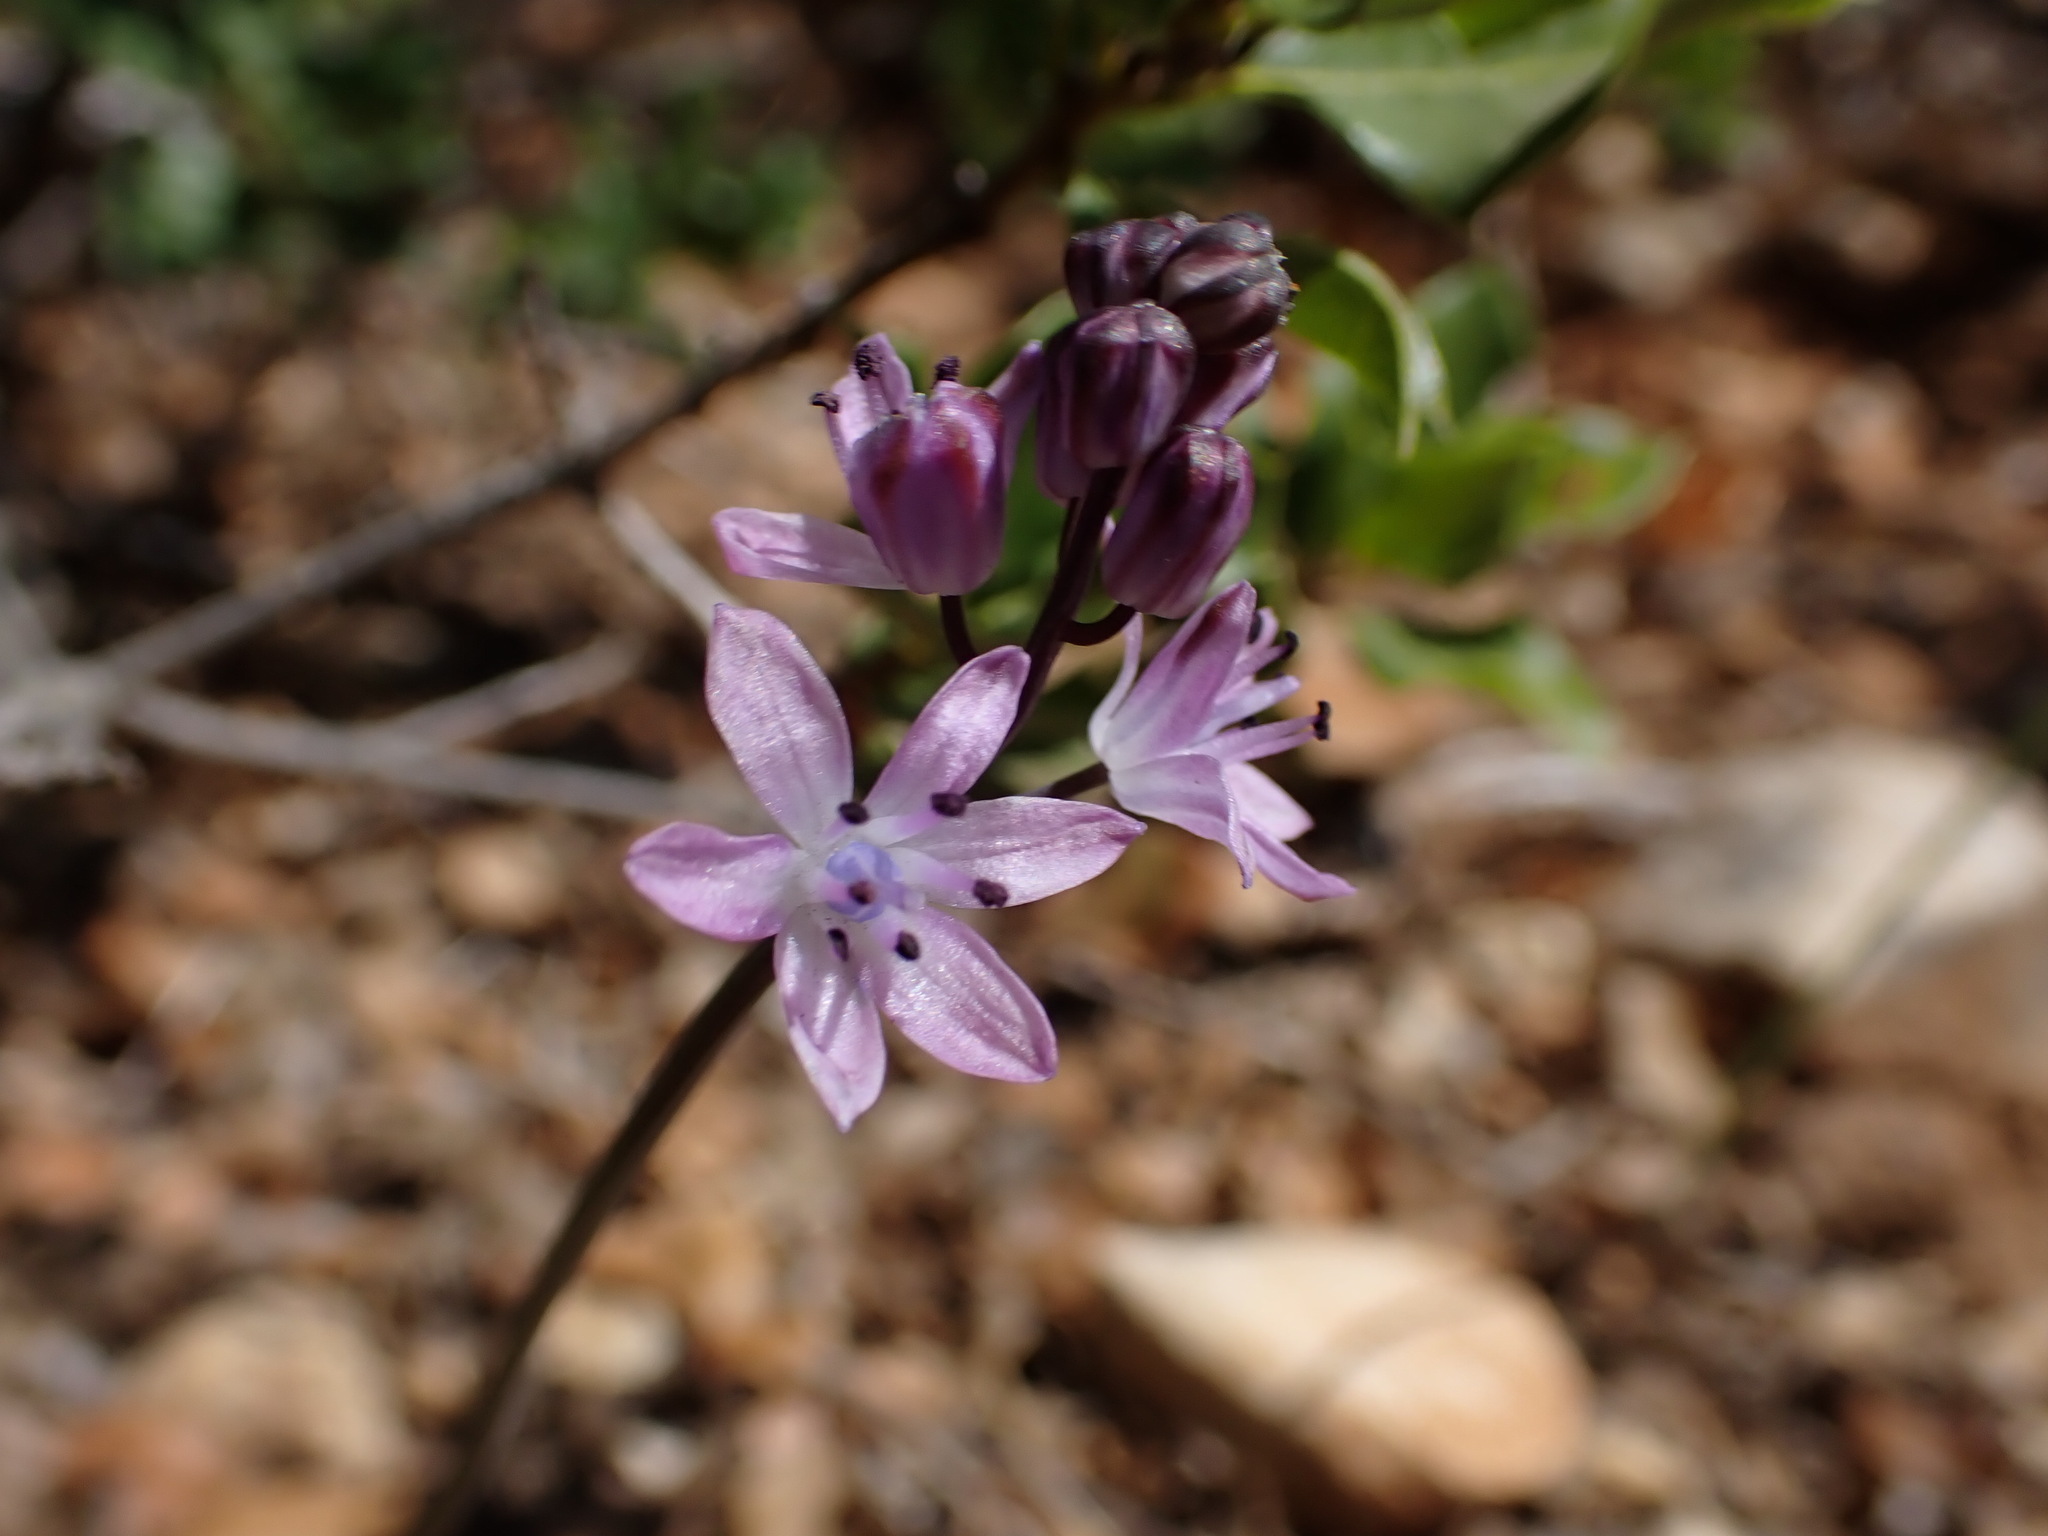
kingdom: Plantae
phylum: Tracheophyta
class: Liliopsida
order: Asparagales
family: Asparagaceae
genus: Prospero
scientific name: Prospero autumnale
